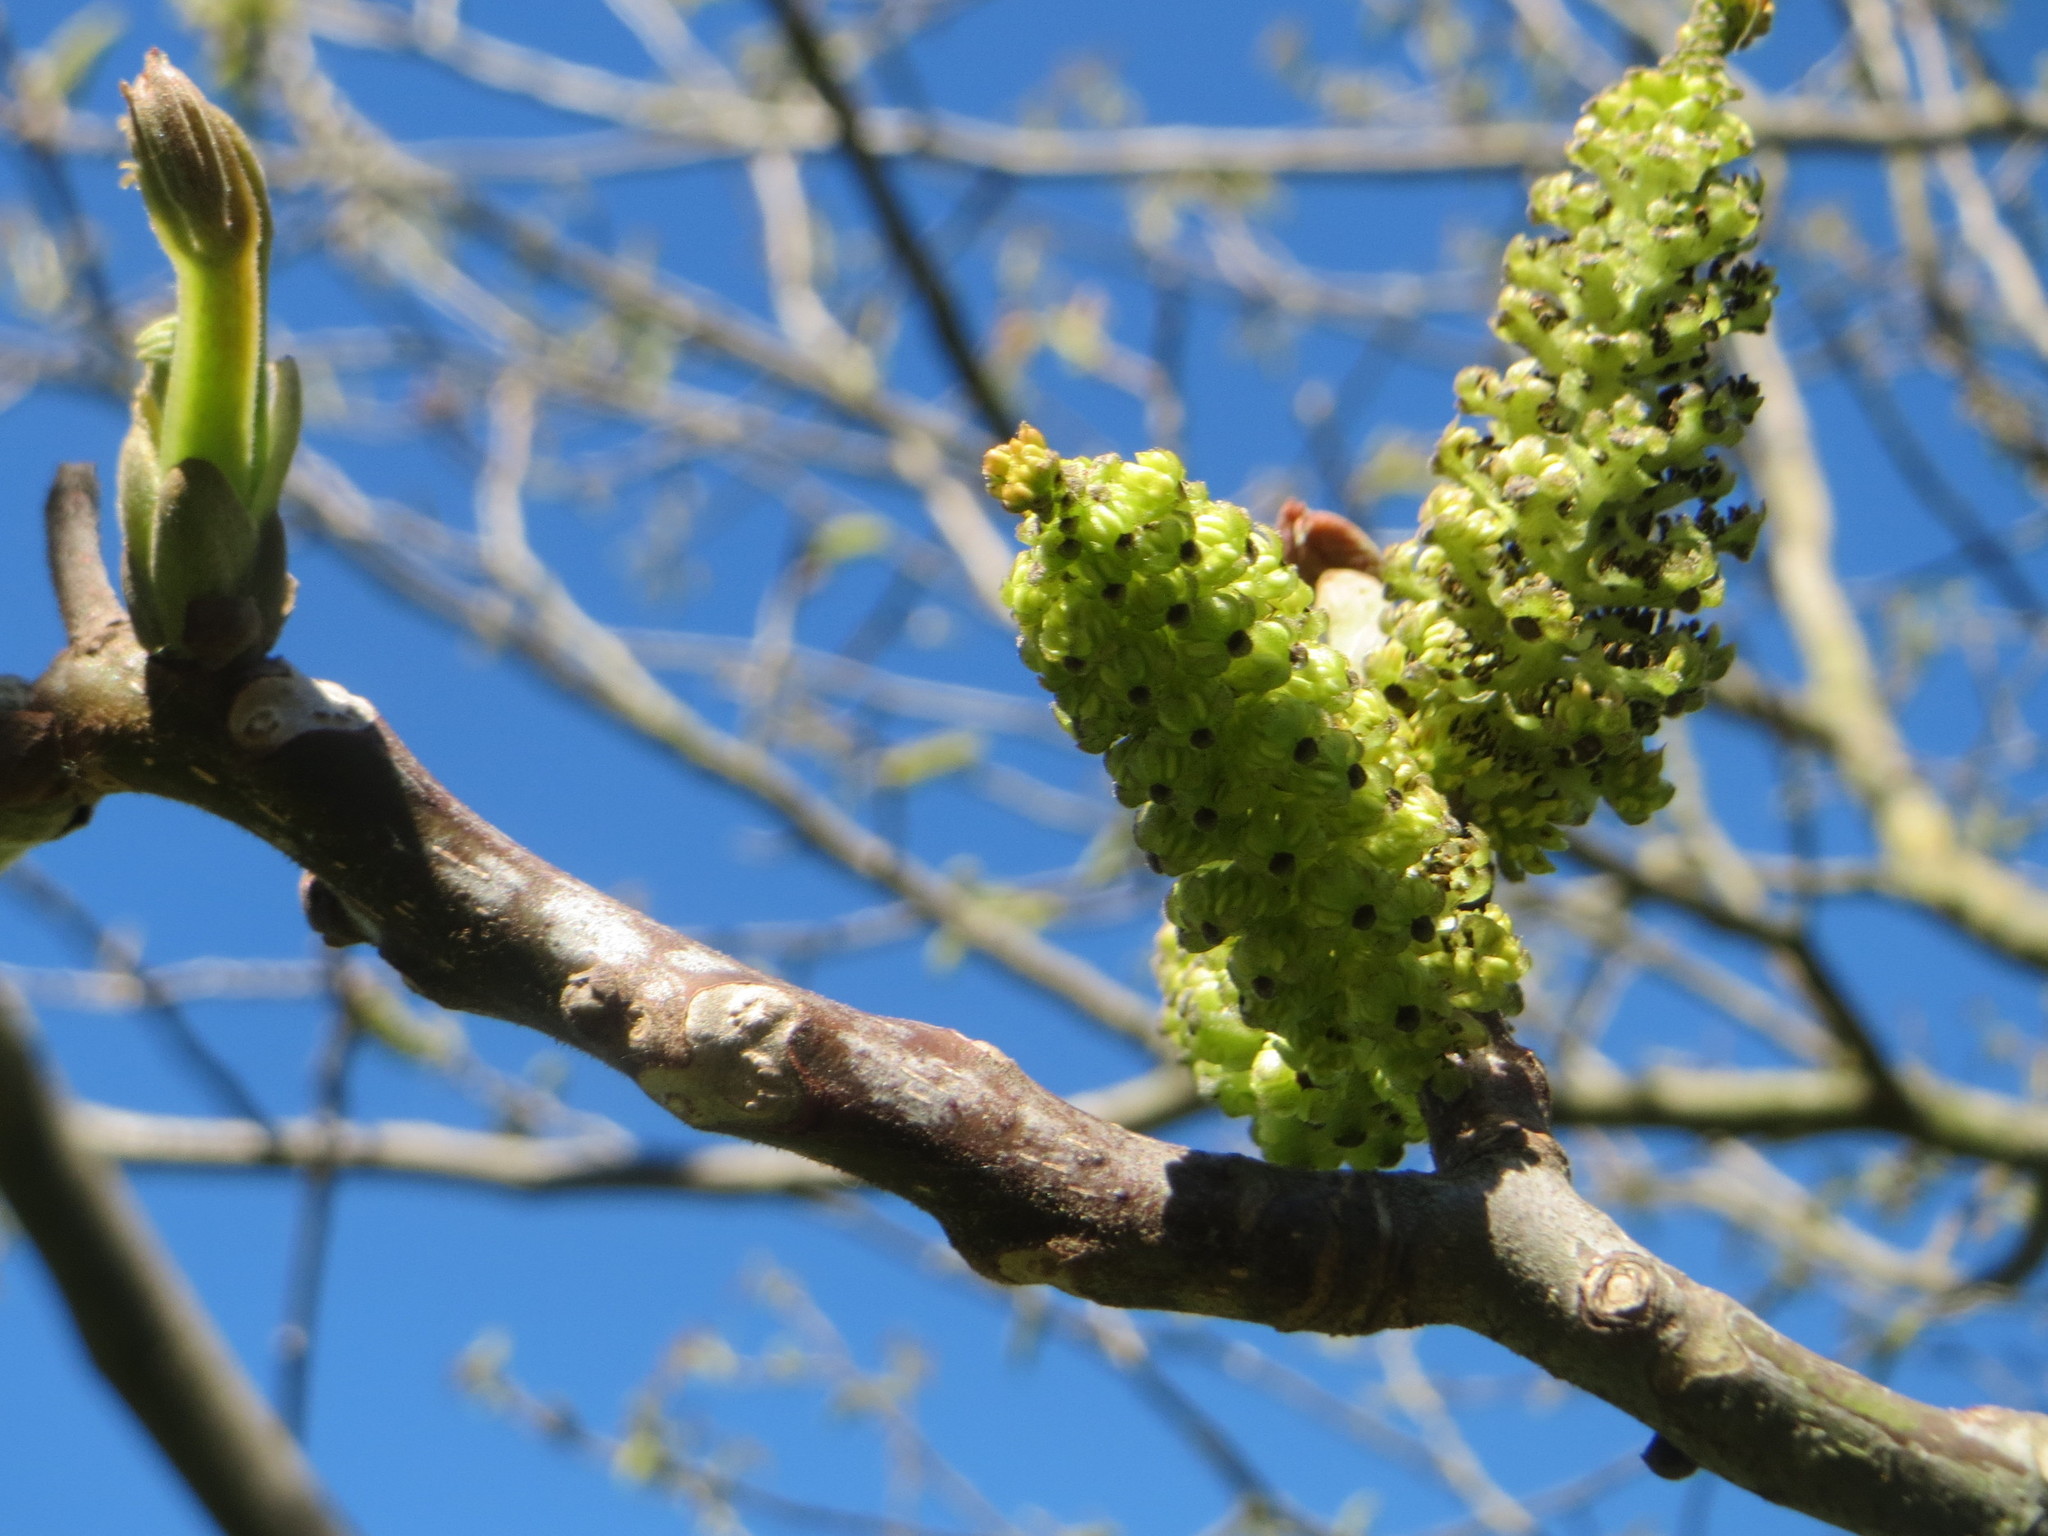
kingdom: Plantae
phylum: Tracheophyta
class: Magnoliopsida
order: Fagales
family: Juglandaceae
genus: Juglans
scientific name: Juglans regia
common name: Walnut
